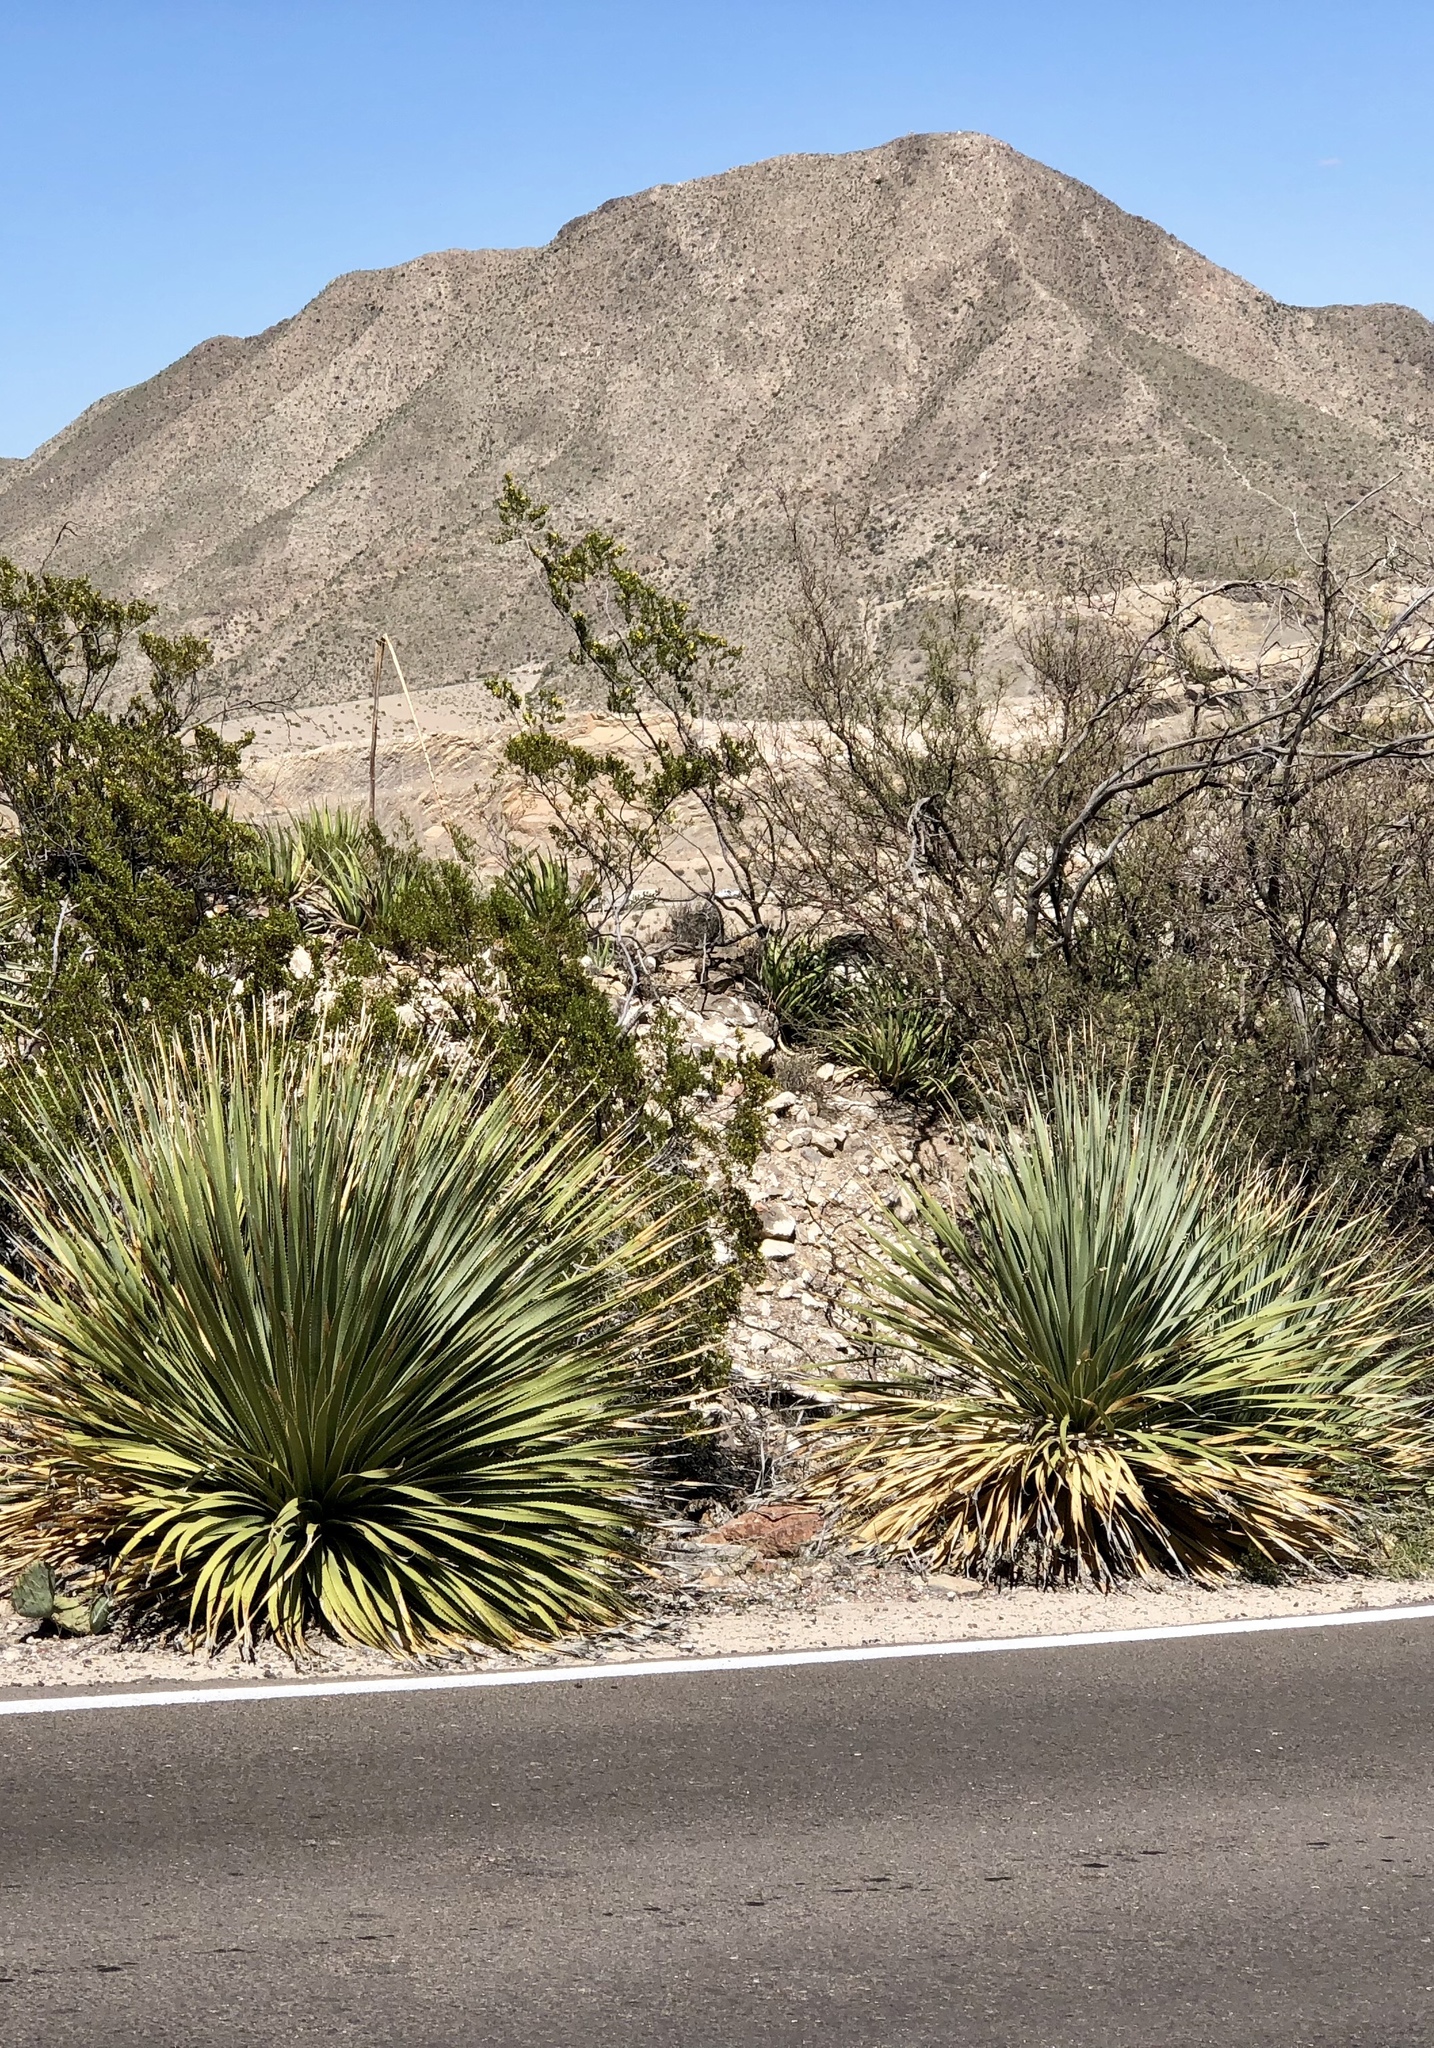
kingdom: Plantae
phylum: Tracheophyta
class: Liliopsida
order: Asparagales
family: Asparagaceae
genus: Dasylirion
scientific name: Dasylirion wheeleri
